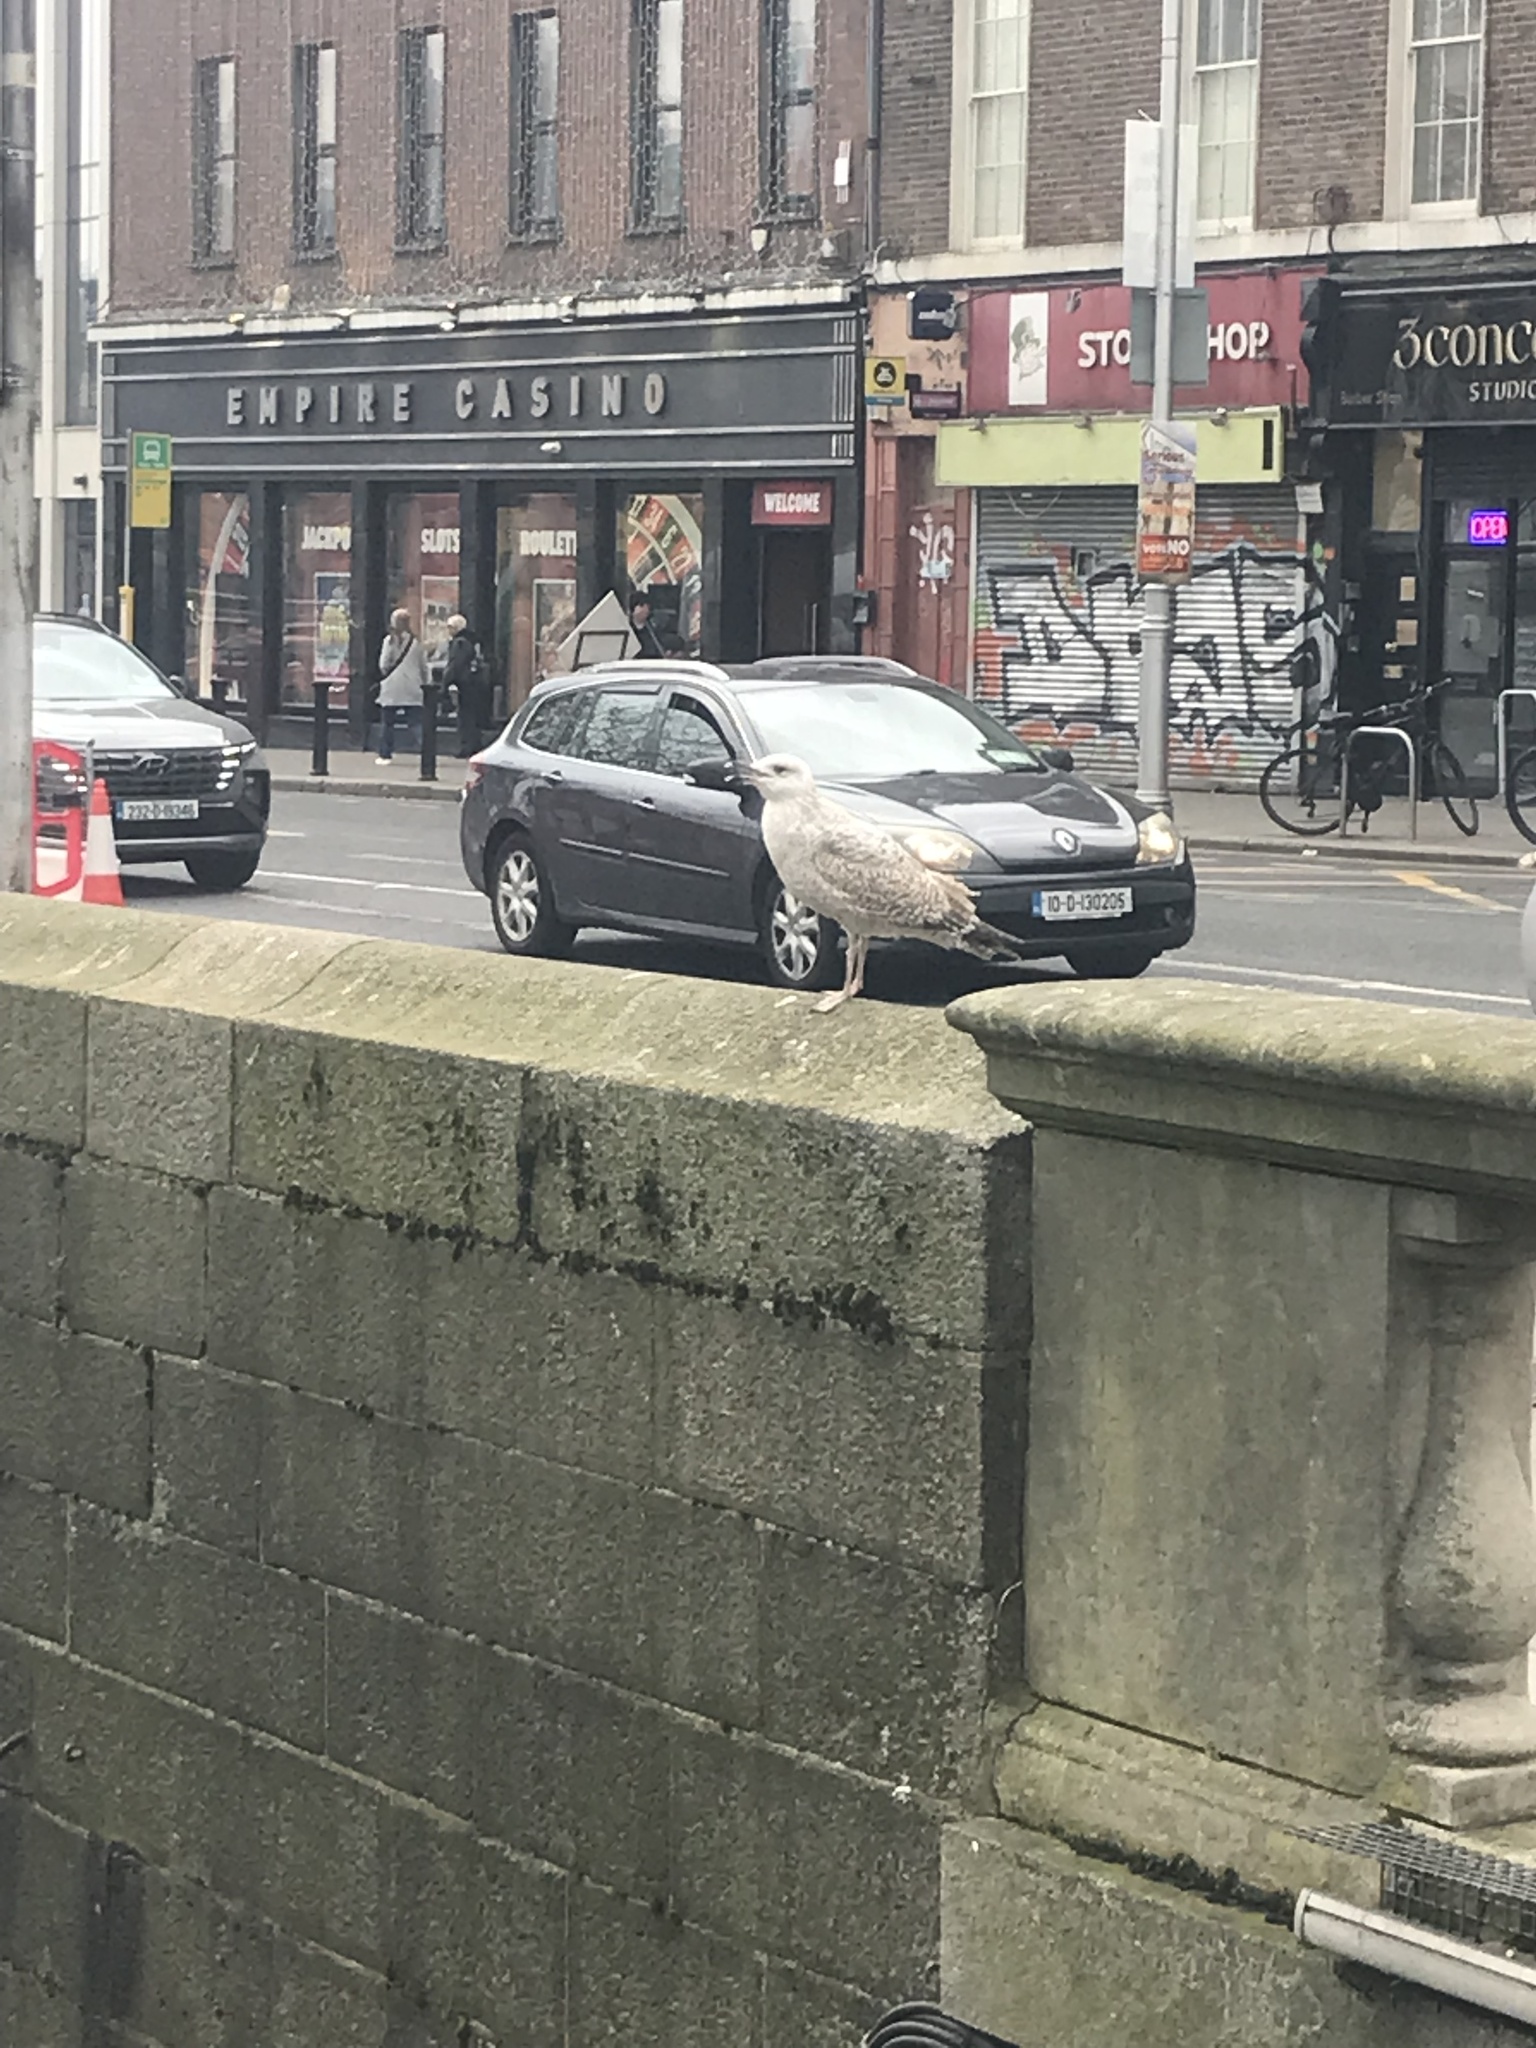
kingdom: Animalia
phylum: Chordata
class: Aves
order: Charadriiformes
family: Laridae
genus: Larus
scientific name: Larus argentatus
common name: Herring gull
